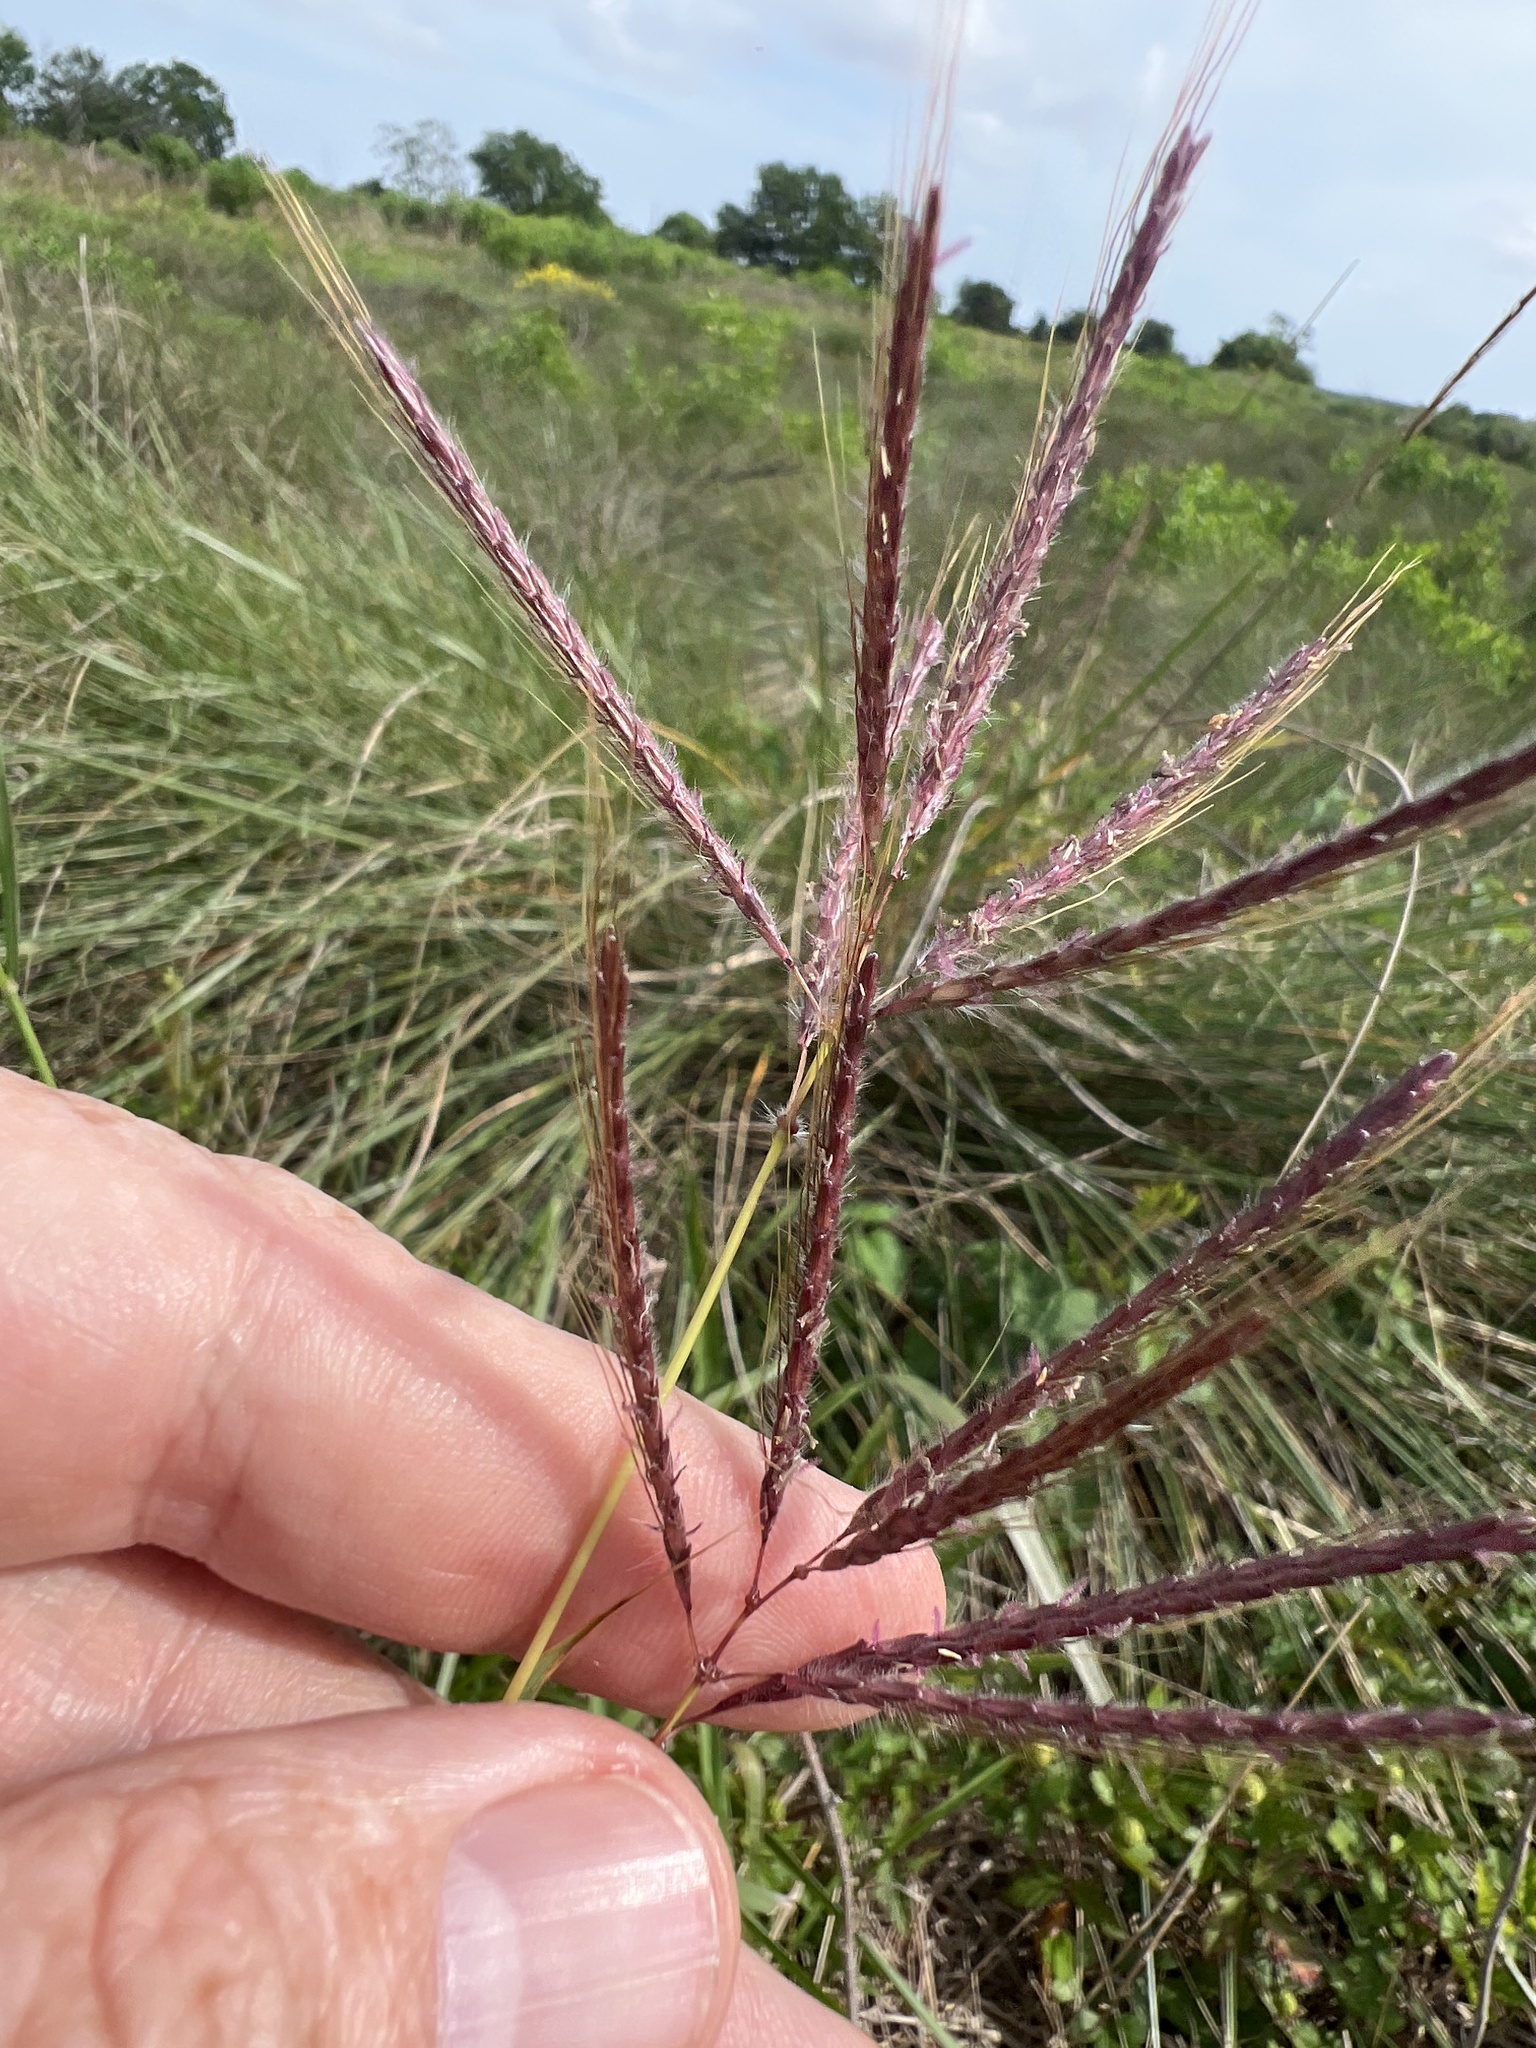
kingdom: Plantae
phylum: Tracheophyta
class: Liliopsida
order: Poales
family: Poaceae
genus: Dichanthium
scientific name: Dichanthium annulatum
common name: Kleberg's bluestem
